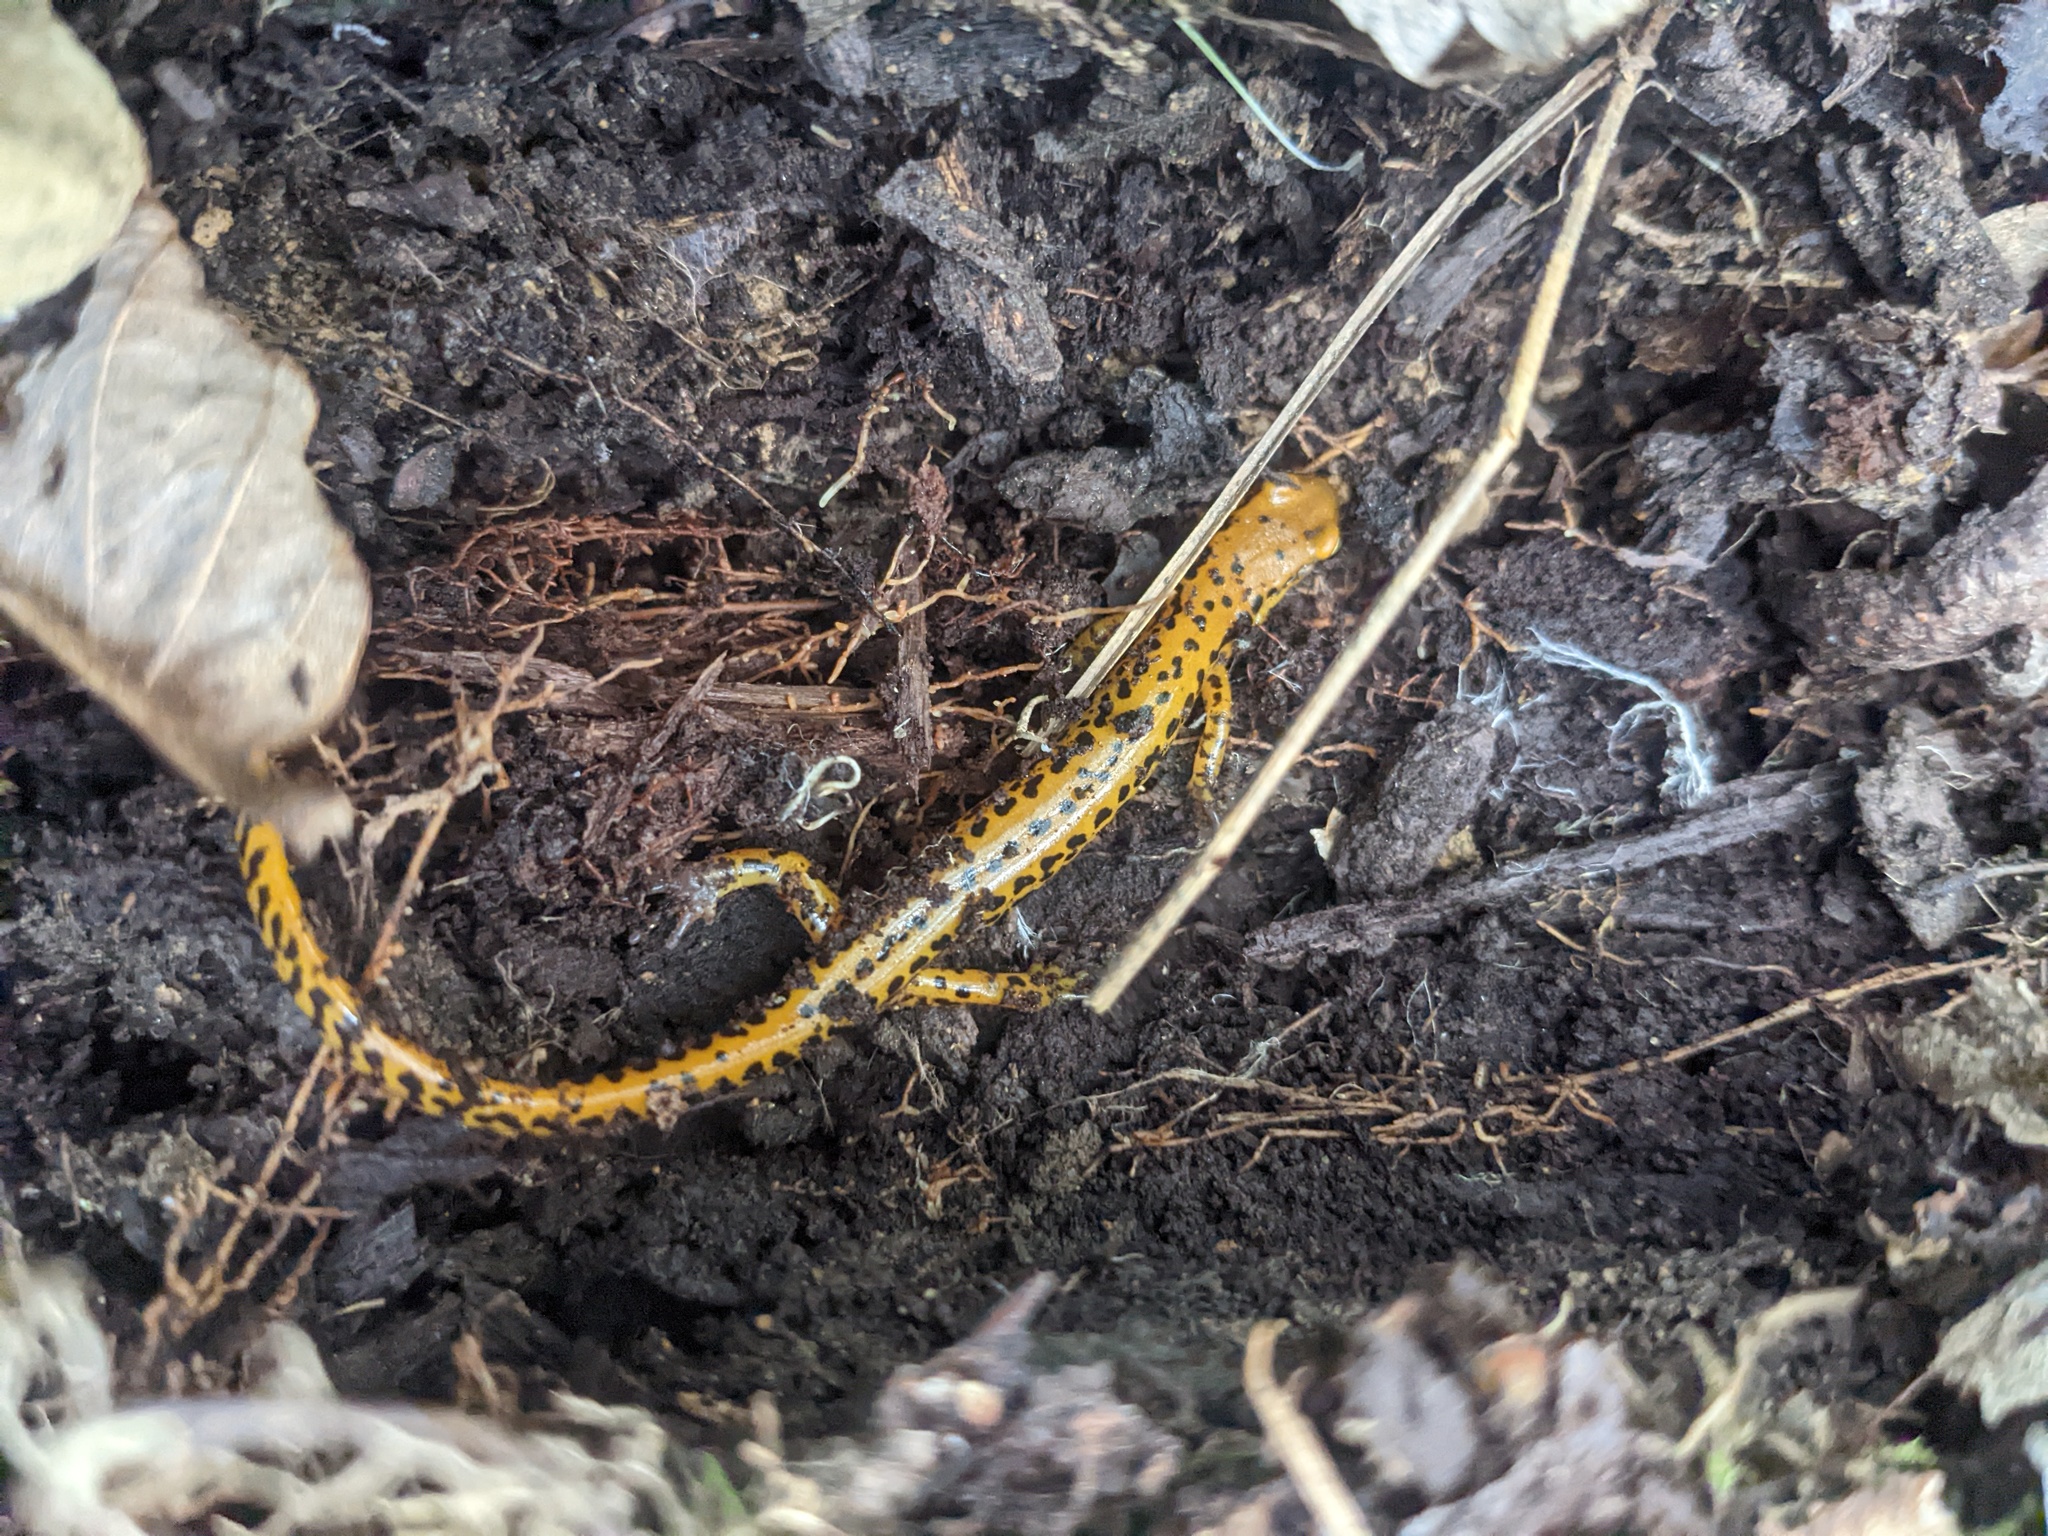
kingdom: Animalia
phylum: Chordata
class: Amphibia
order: Caudata
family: Plethodontidae
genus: Eurycea
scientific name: Eurycea longicauda
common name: Long-tailed salamander
